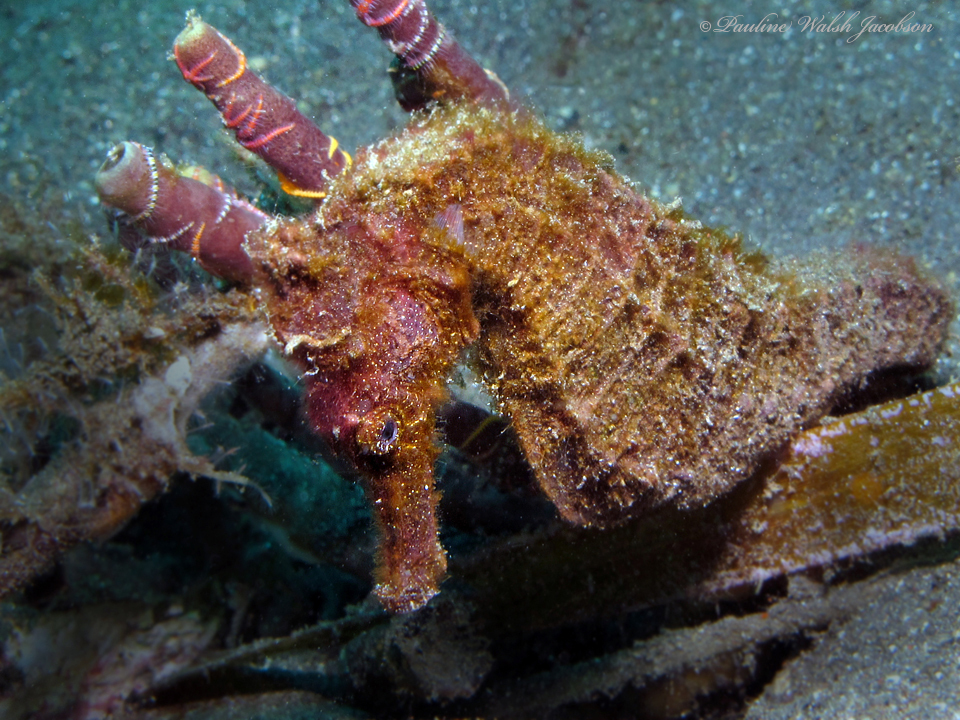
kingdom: Animalia
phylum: Chordata
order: Syngnathiformes
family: Syngnathidae
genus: Hippocampus
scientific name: Hippocampus kuda
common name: Spotted seahorse
